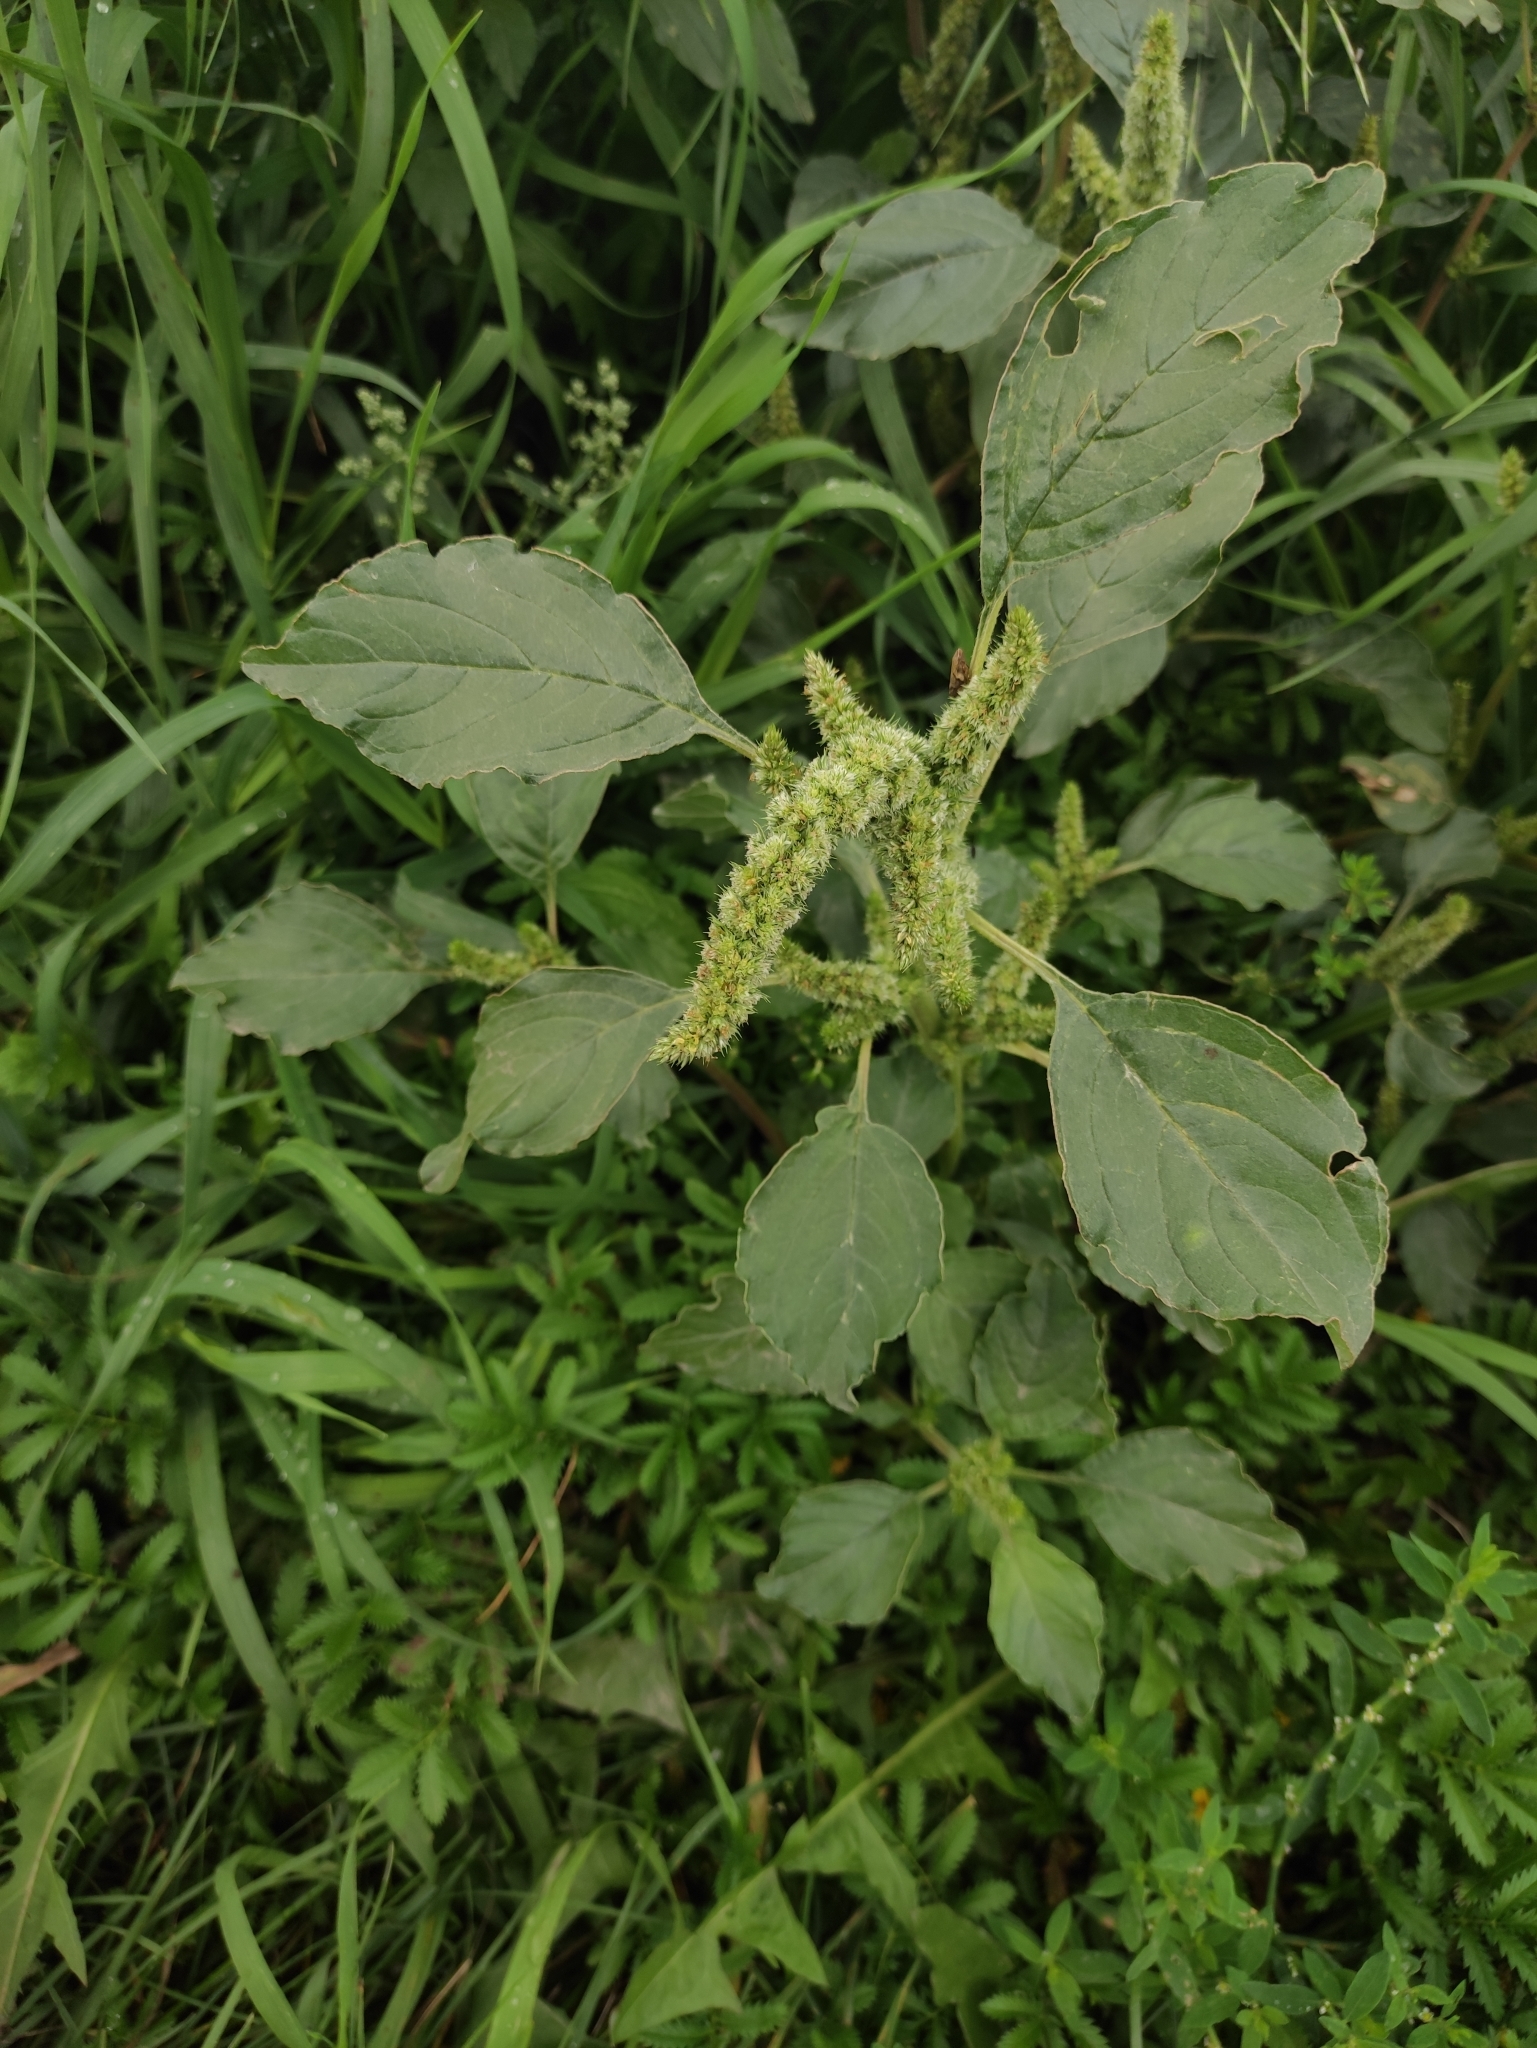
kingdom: Plantae
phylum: Tracheophyta
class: Magnoliopsida
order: Caryophyllales
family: Amaranthaceae
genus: Amaranthus
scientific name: Amaranthus retroflexus
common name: Redroot amaranth
